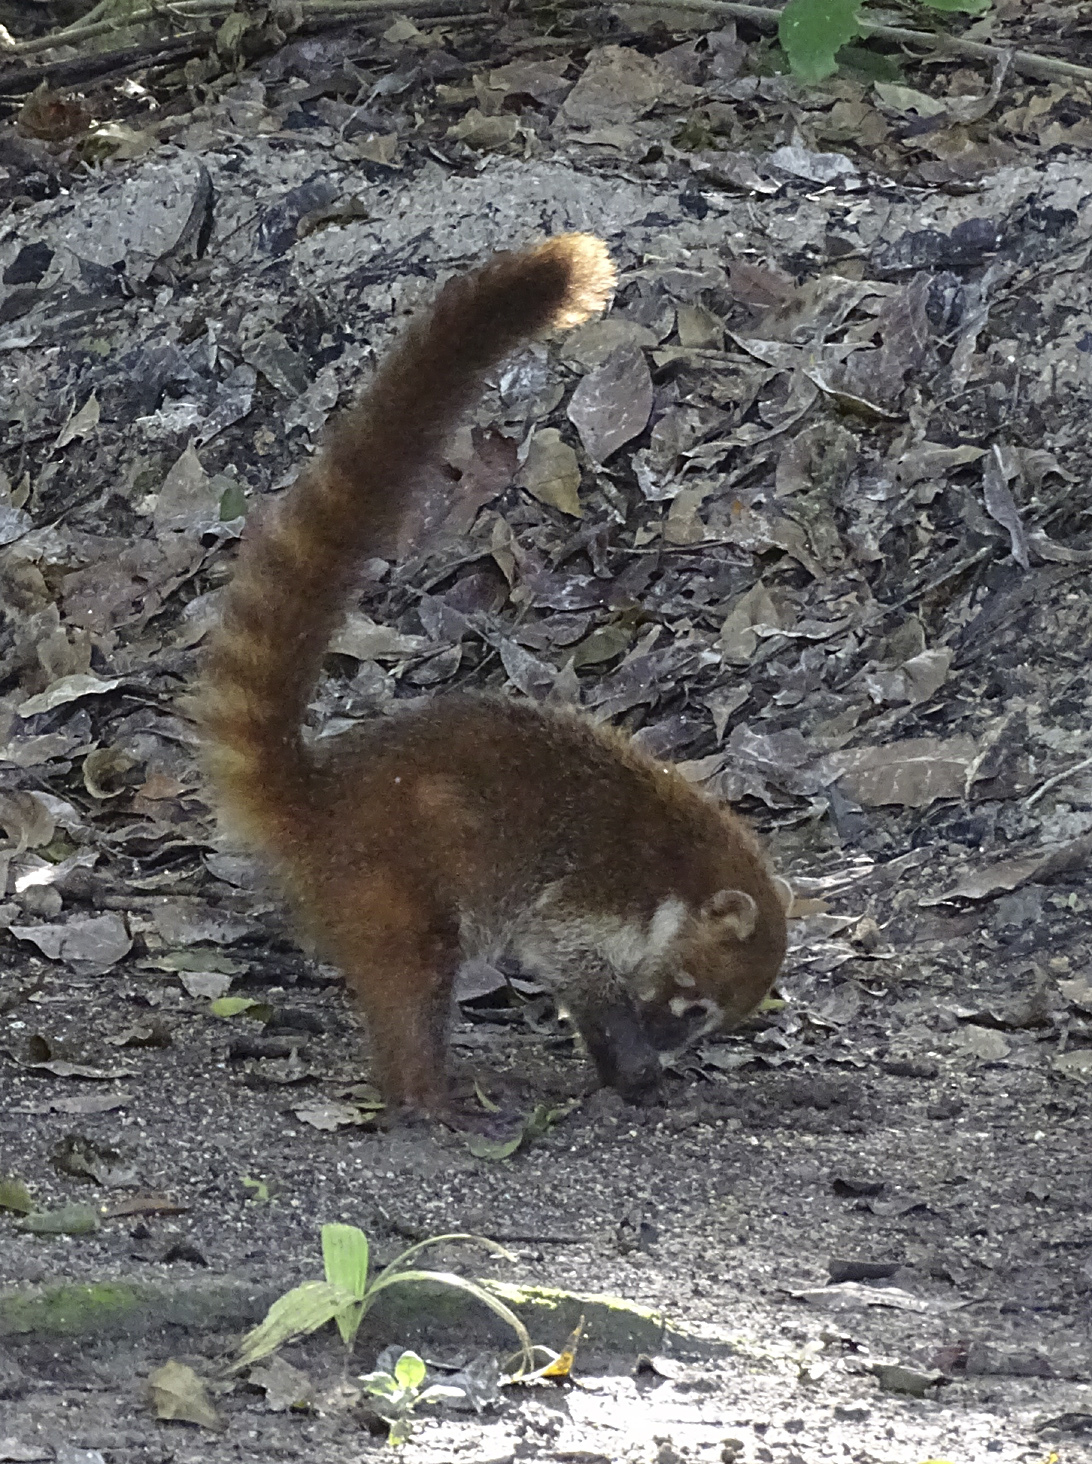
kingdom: Animalia
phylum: Chordata
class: Mammalia
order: Carnivora
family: Procyonidae
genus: Nasua
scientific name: Nasua narica
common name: White-nosed coati
